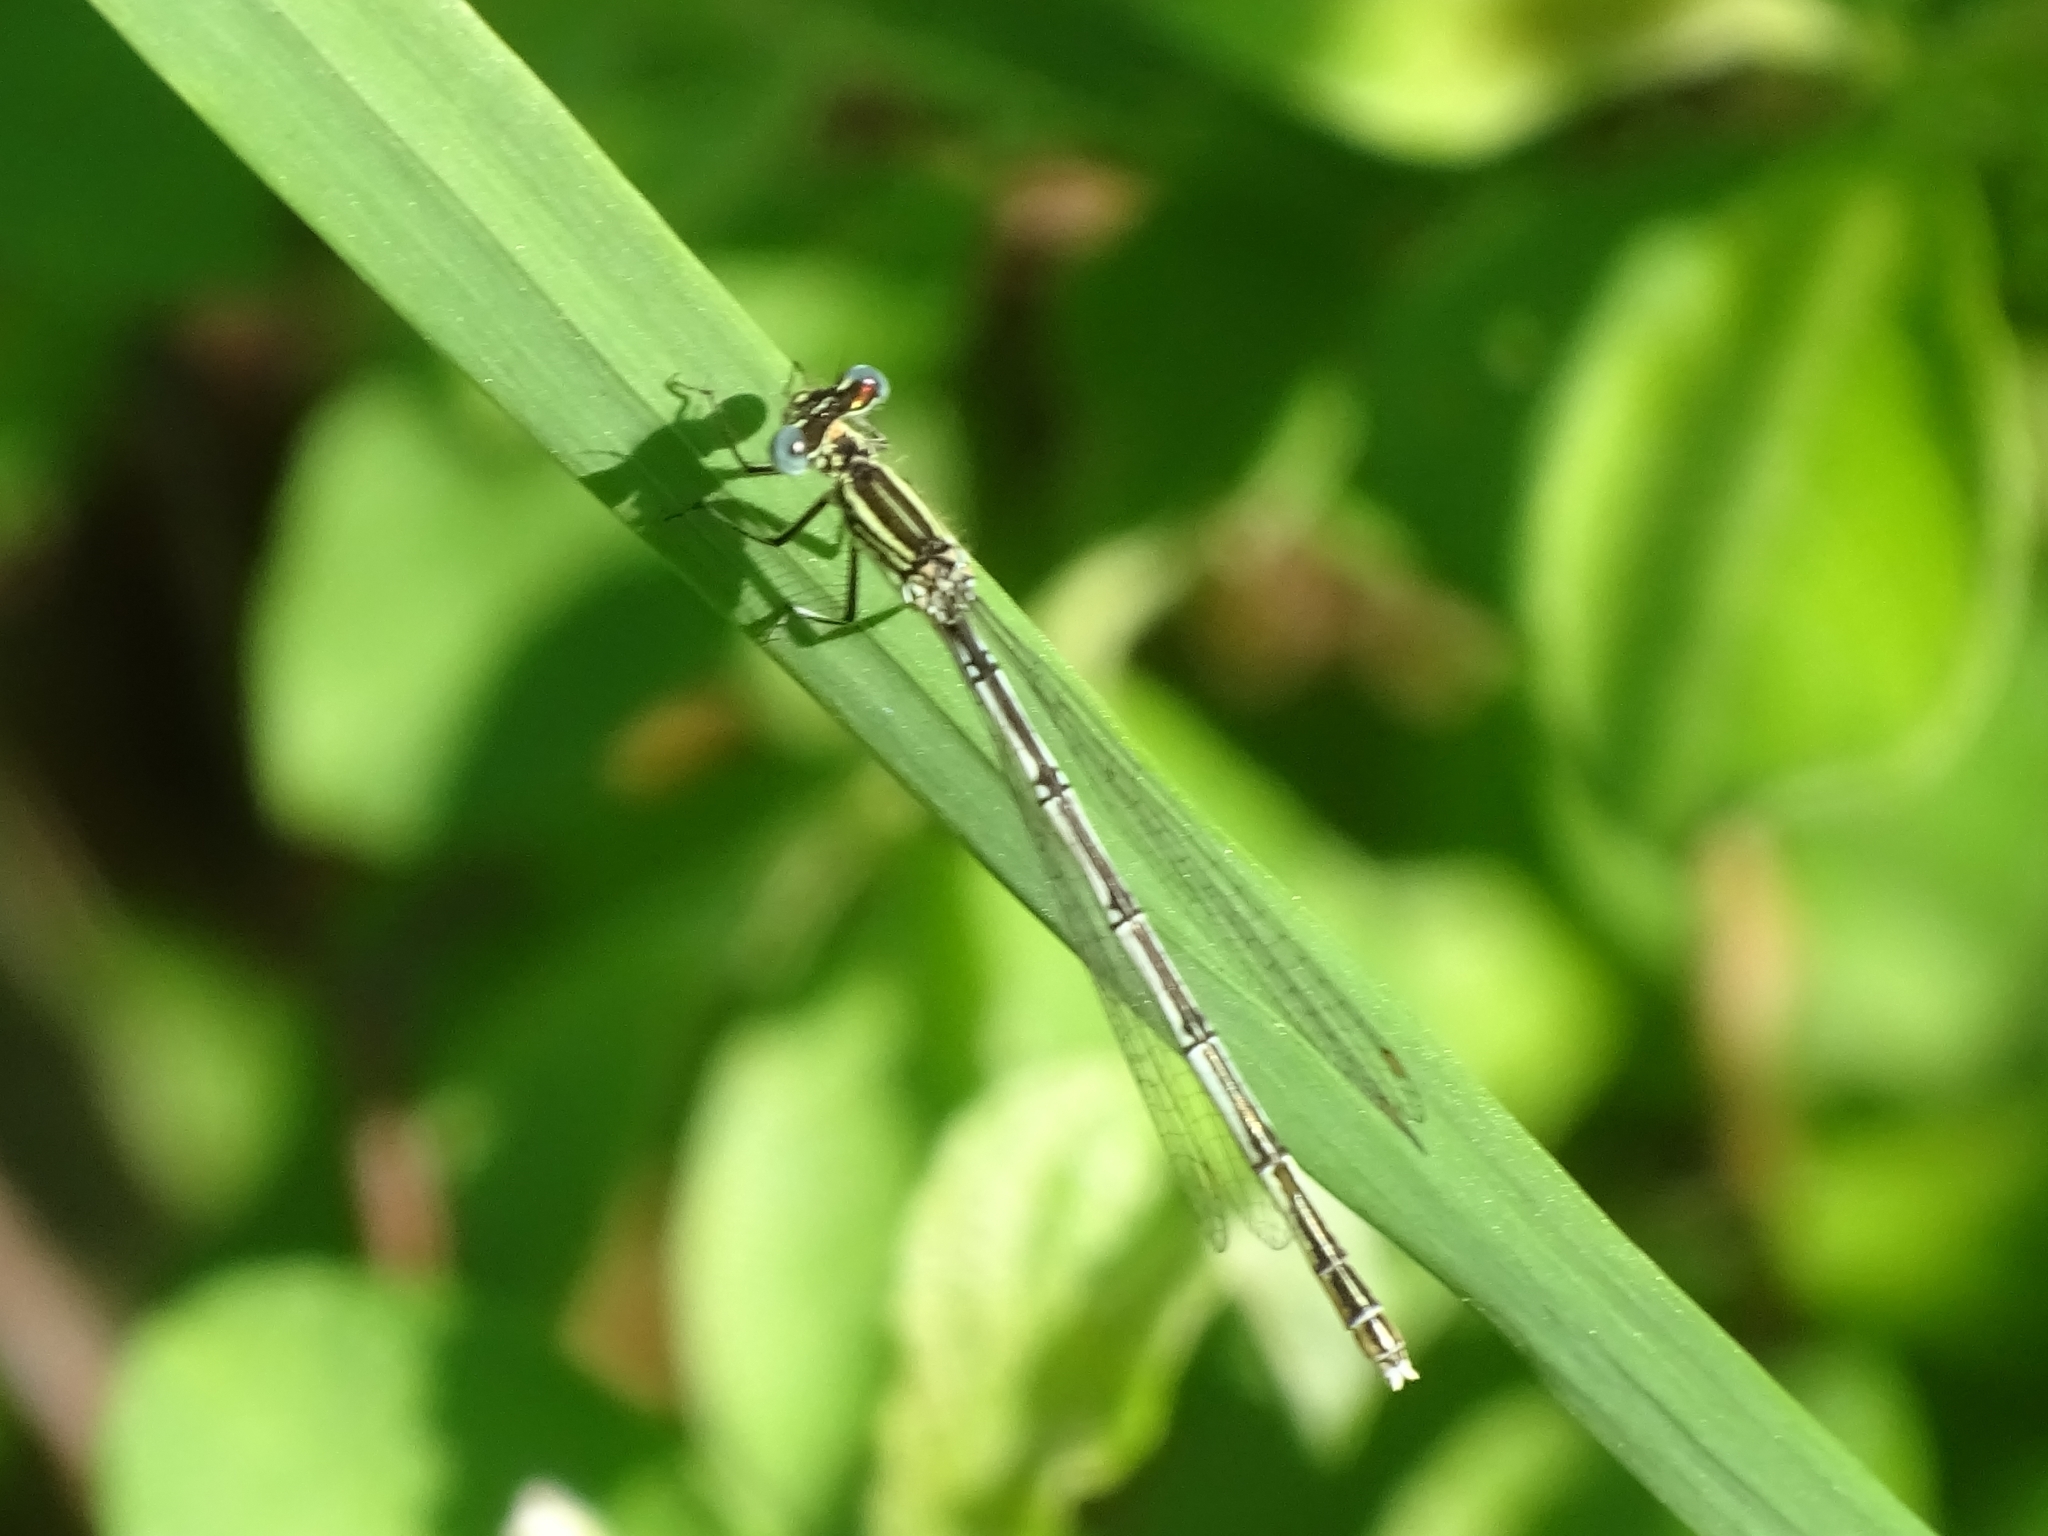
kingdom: Animalia
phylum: Arthropoda
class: Insecta
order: Odonata
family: Platycnemididae
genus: Platycnemis
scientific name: Platycnemis pennipes
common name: White-legged damselfly
